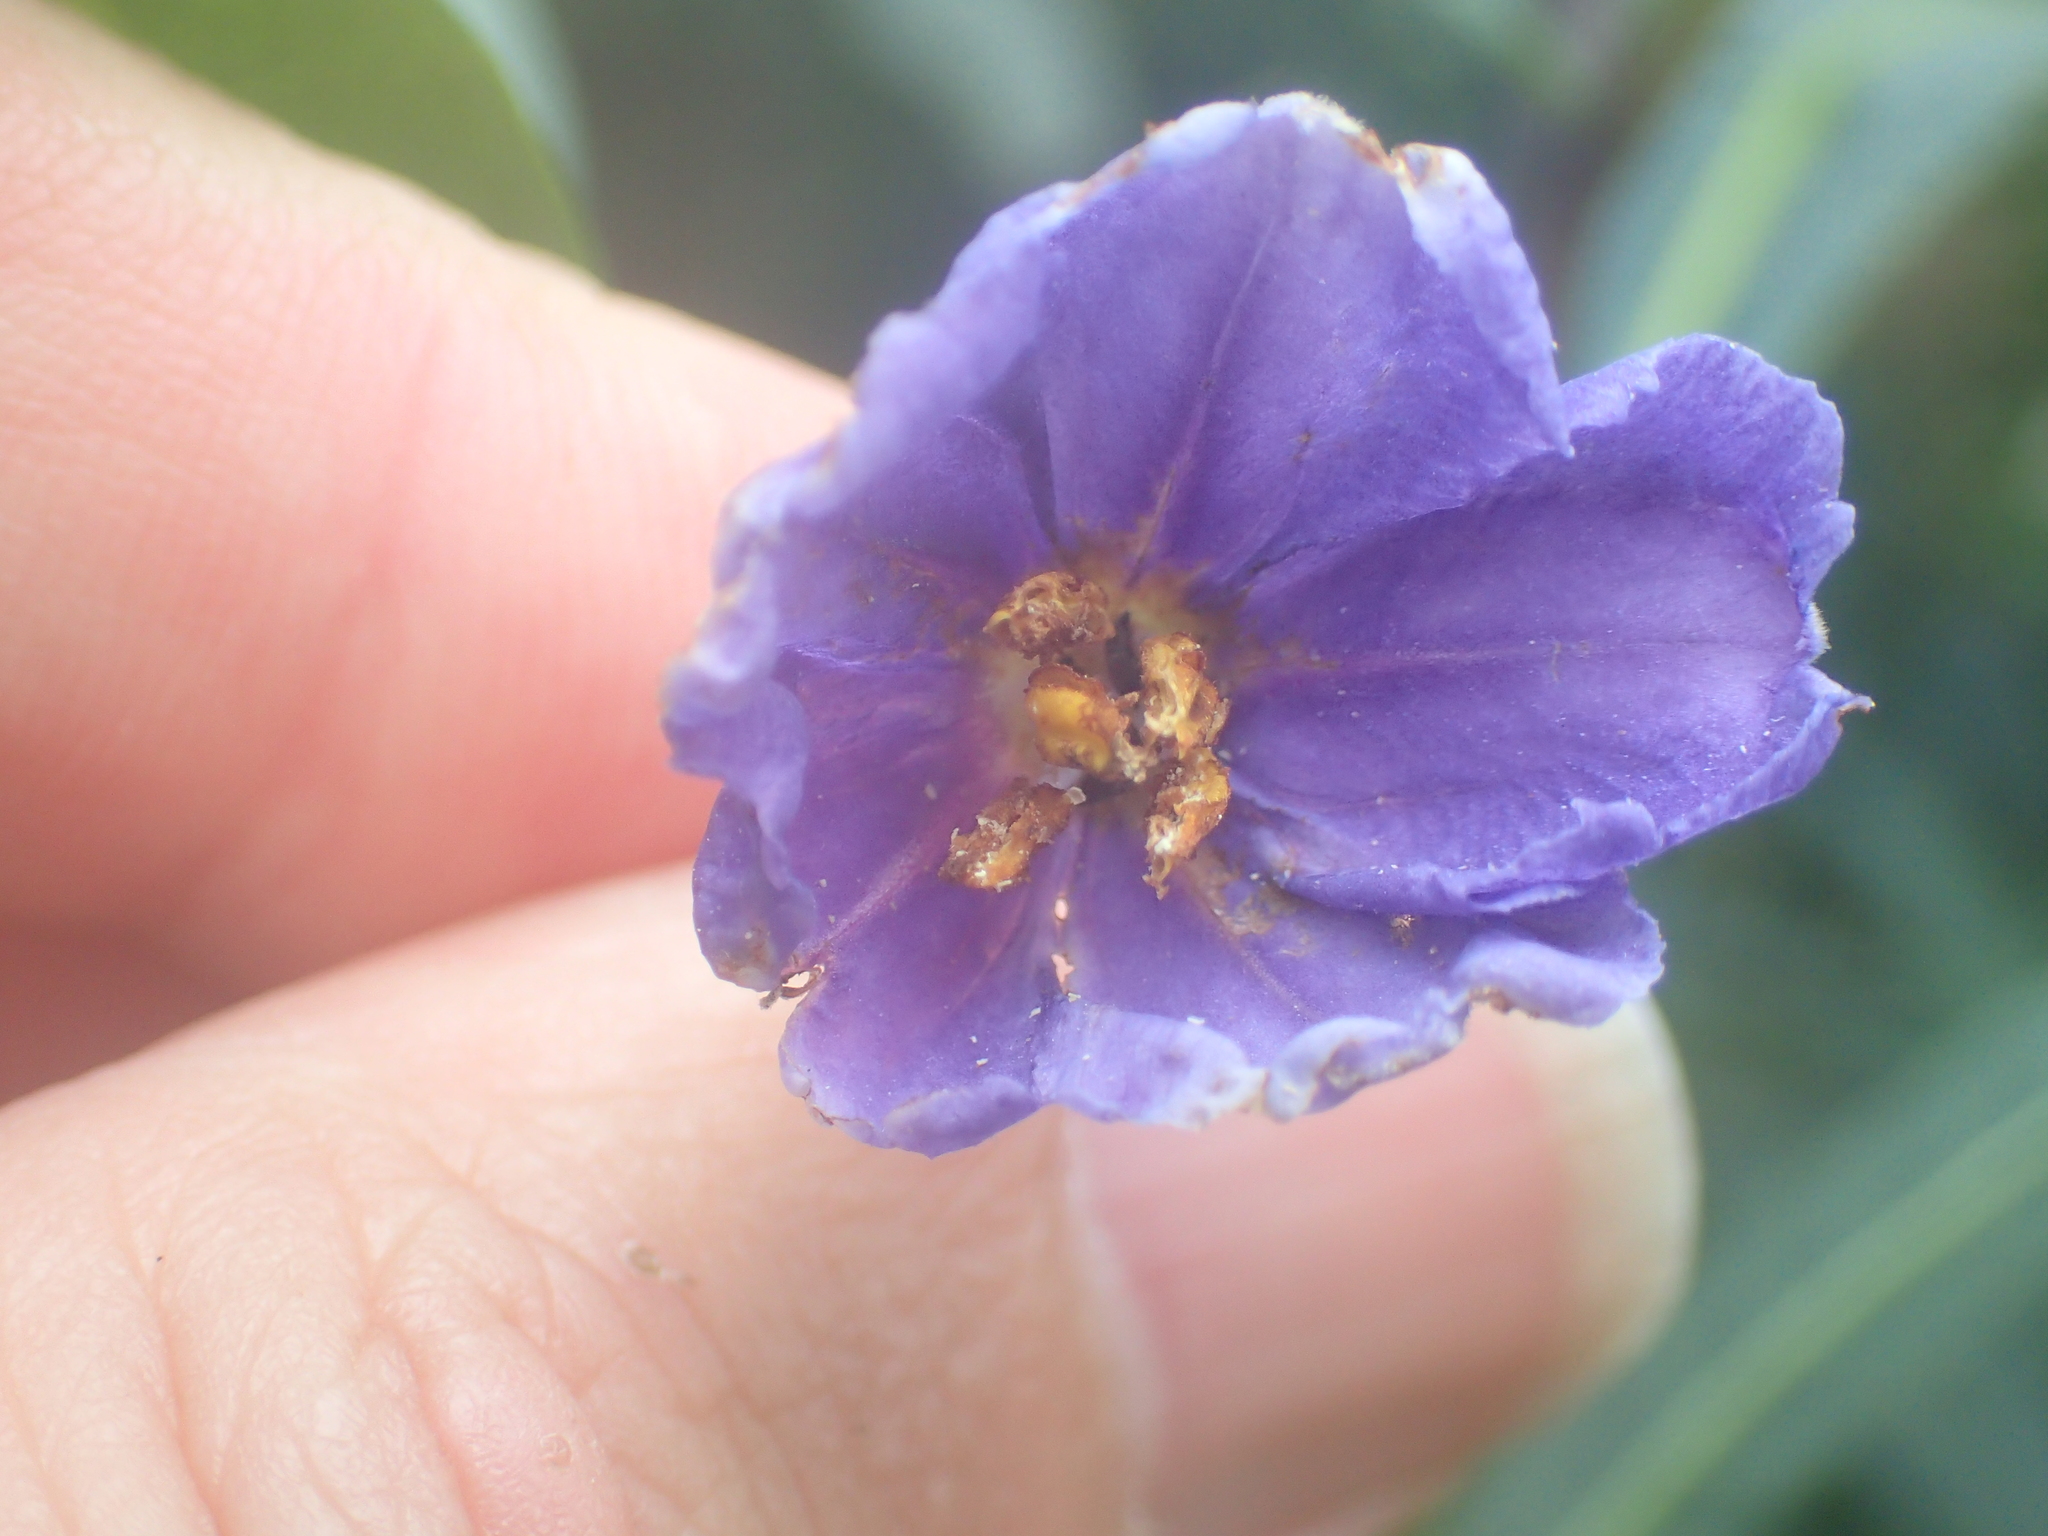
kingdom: Plantae
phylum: Tracheophyta
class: Magnoliopsida
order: Solanales
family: Solanaceae
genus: Solanum
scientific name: Solanum laciniatum
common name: Kangaroo-apple
